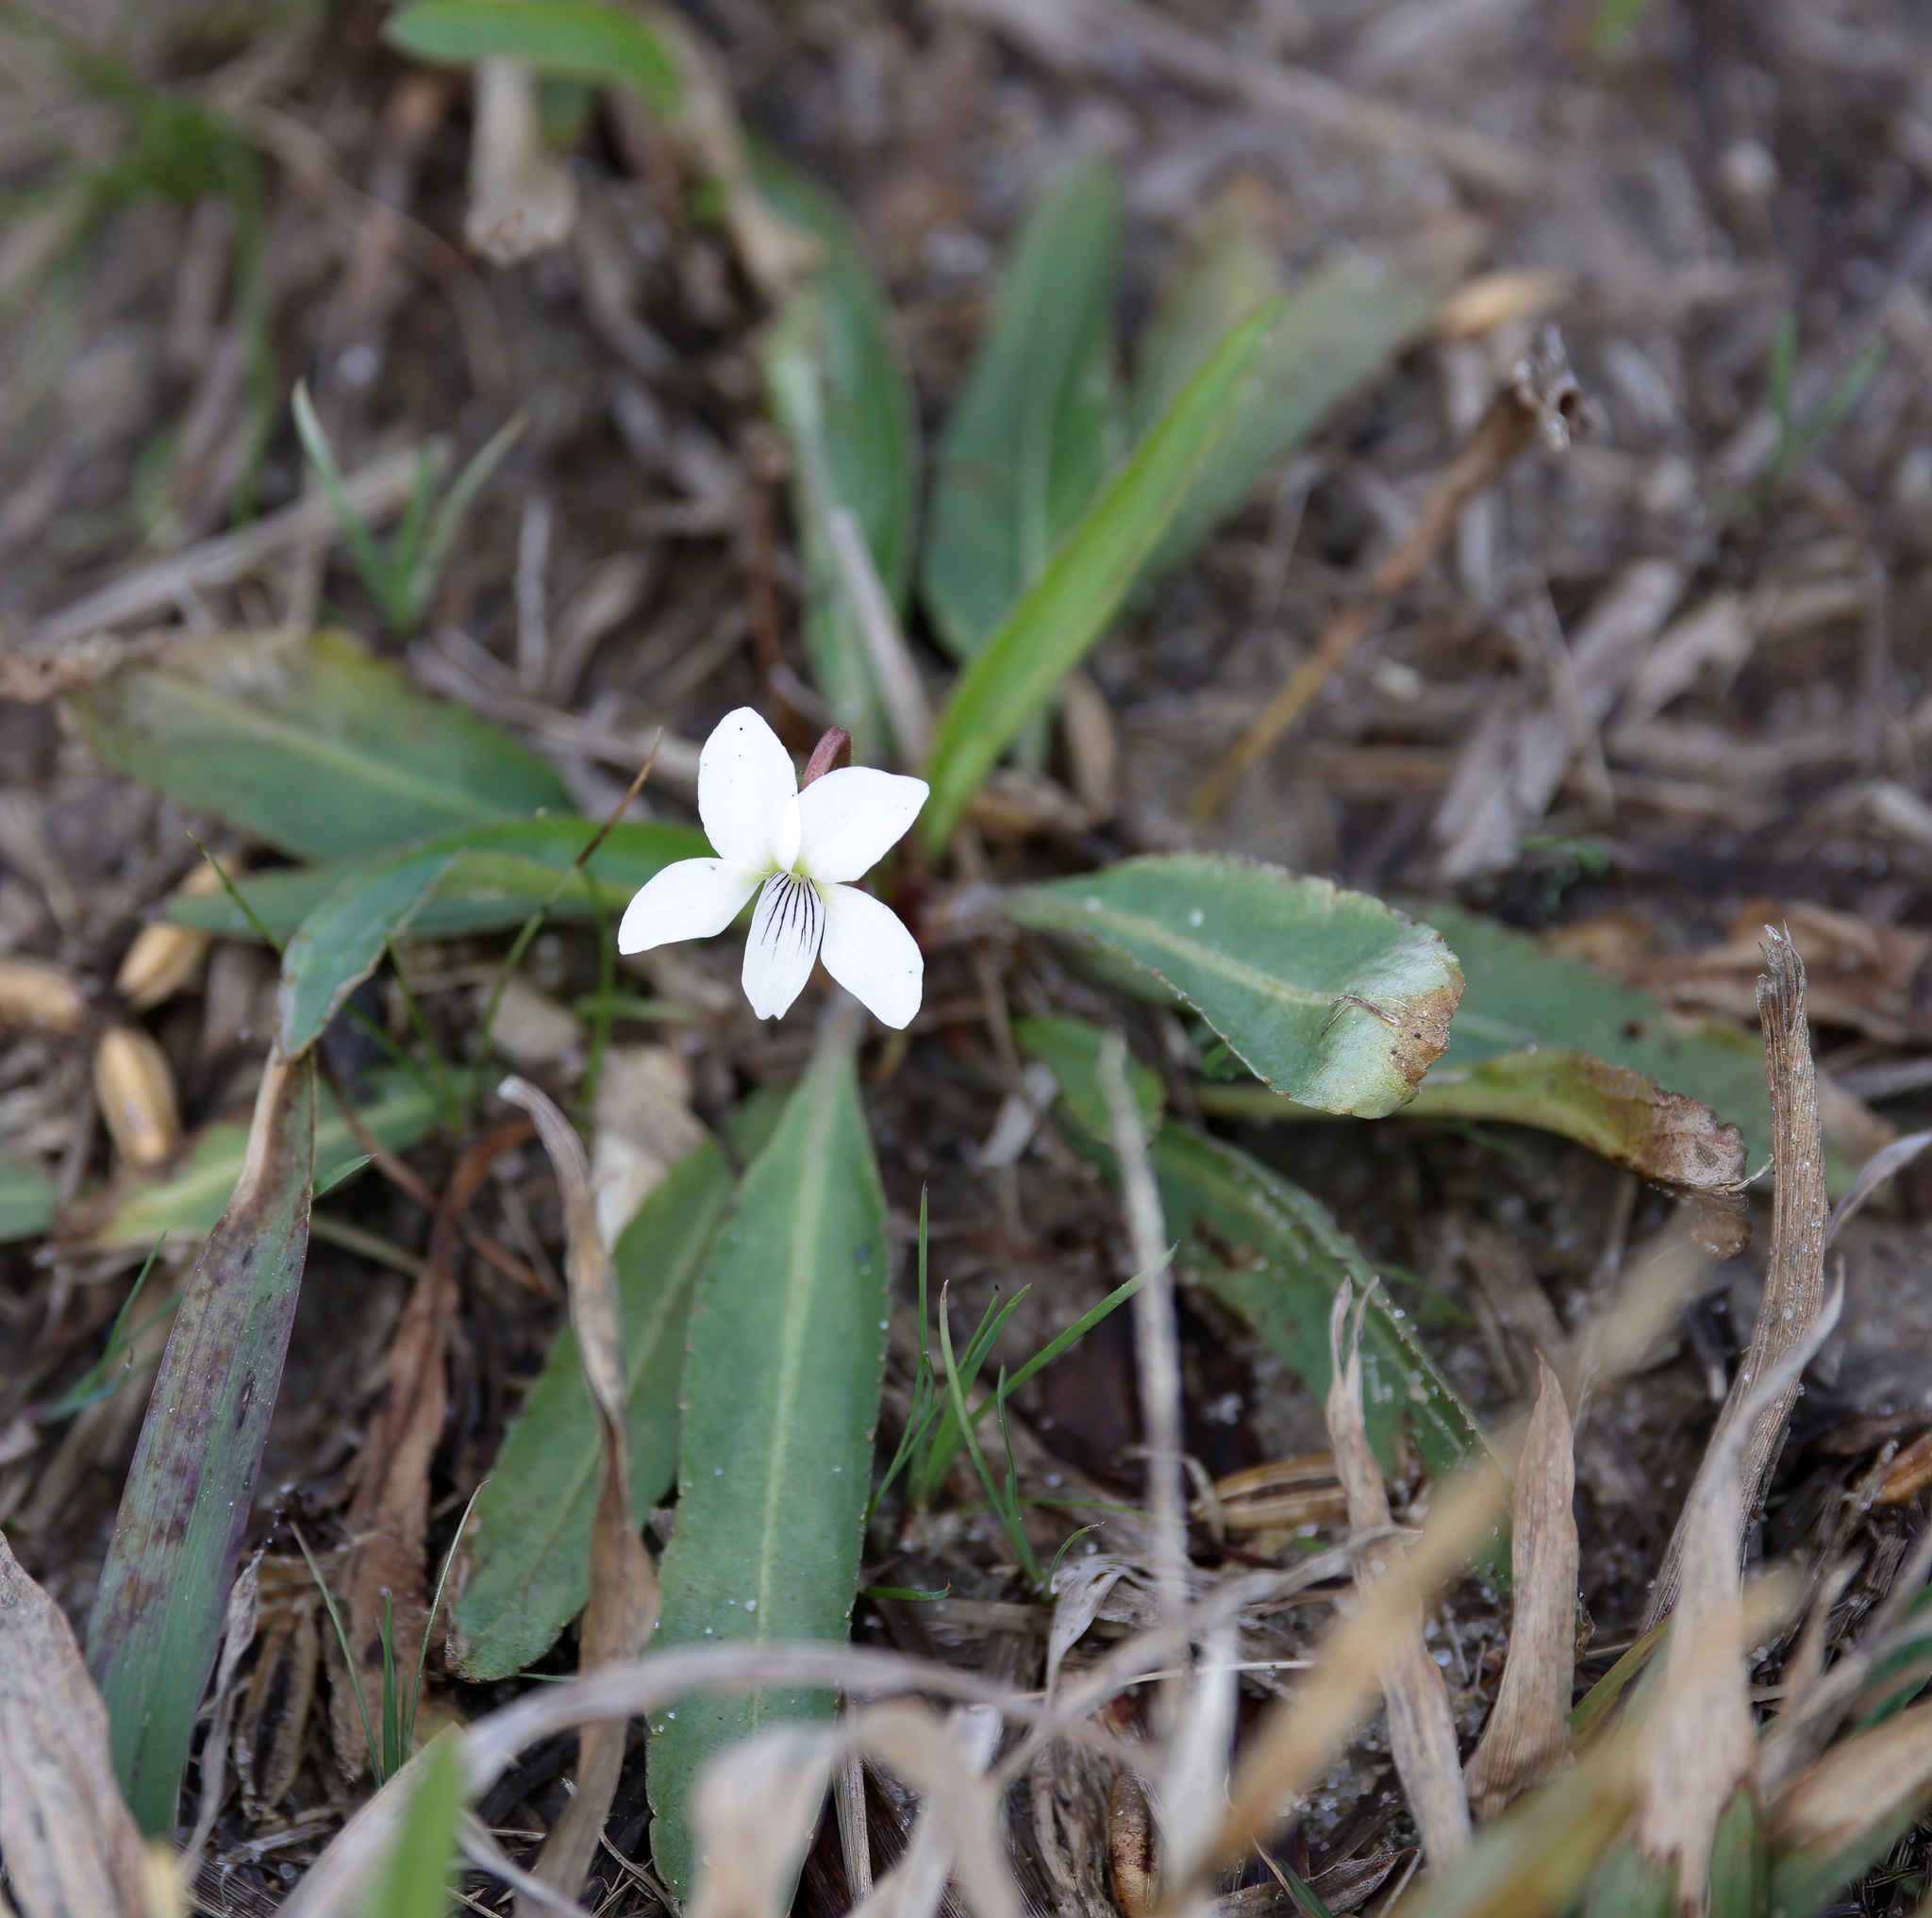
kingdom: Plantae
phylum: Tracheophyta
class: Magnoliopsida
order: Malpighiales
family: Violaceae
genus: Viola
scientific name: Viola lanceolata
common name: Bog white violet
